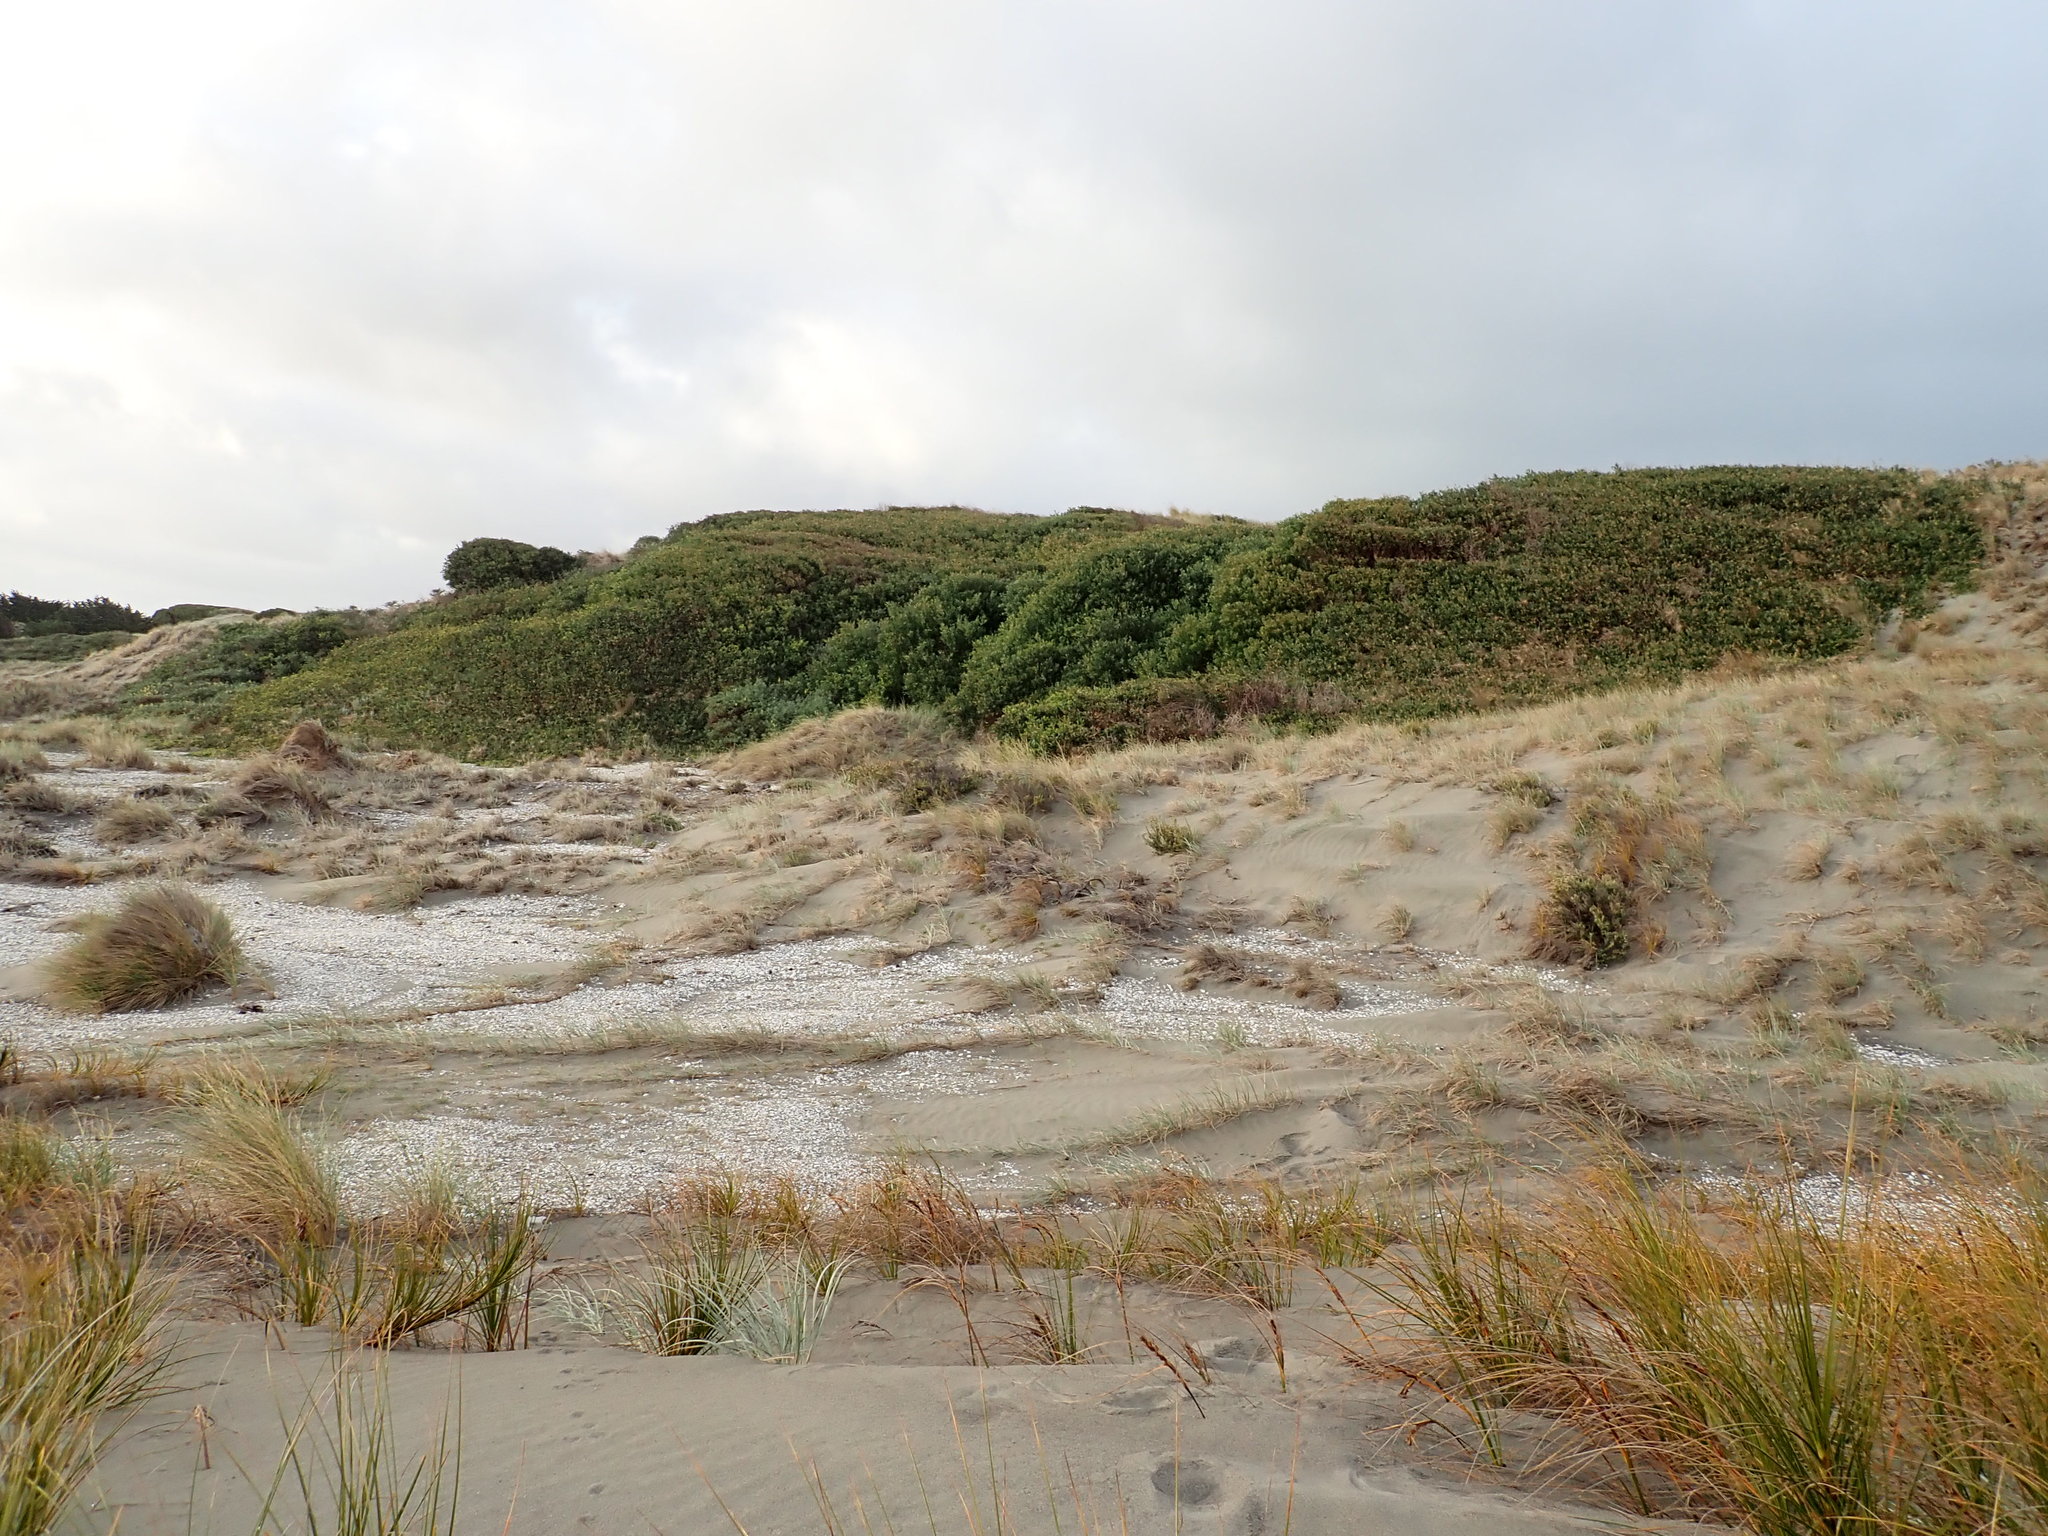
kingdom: Plantae
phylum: Tracheophyta
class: Magnoliopsida
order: Fabales
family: Fabaceae
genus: Acacia
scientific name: Acacia longifolia
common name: Sydney golden wattle
